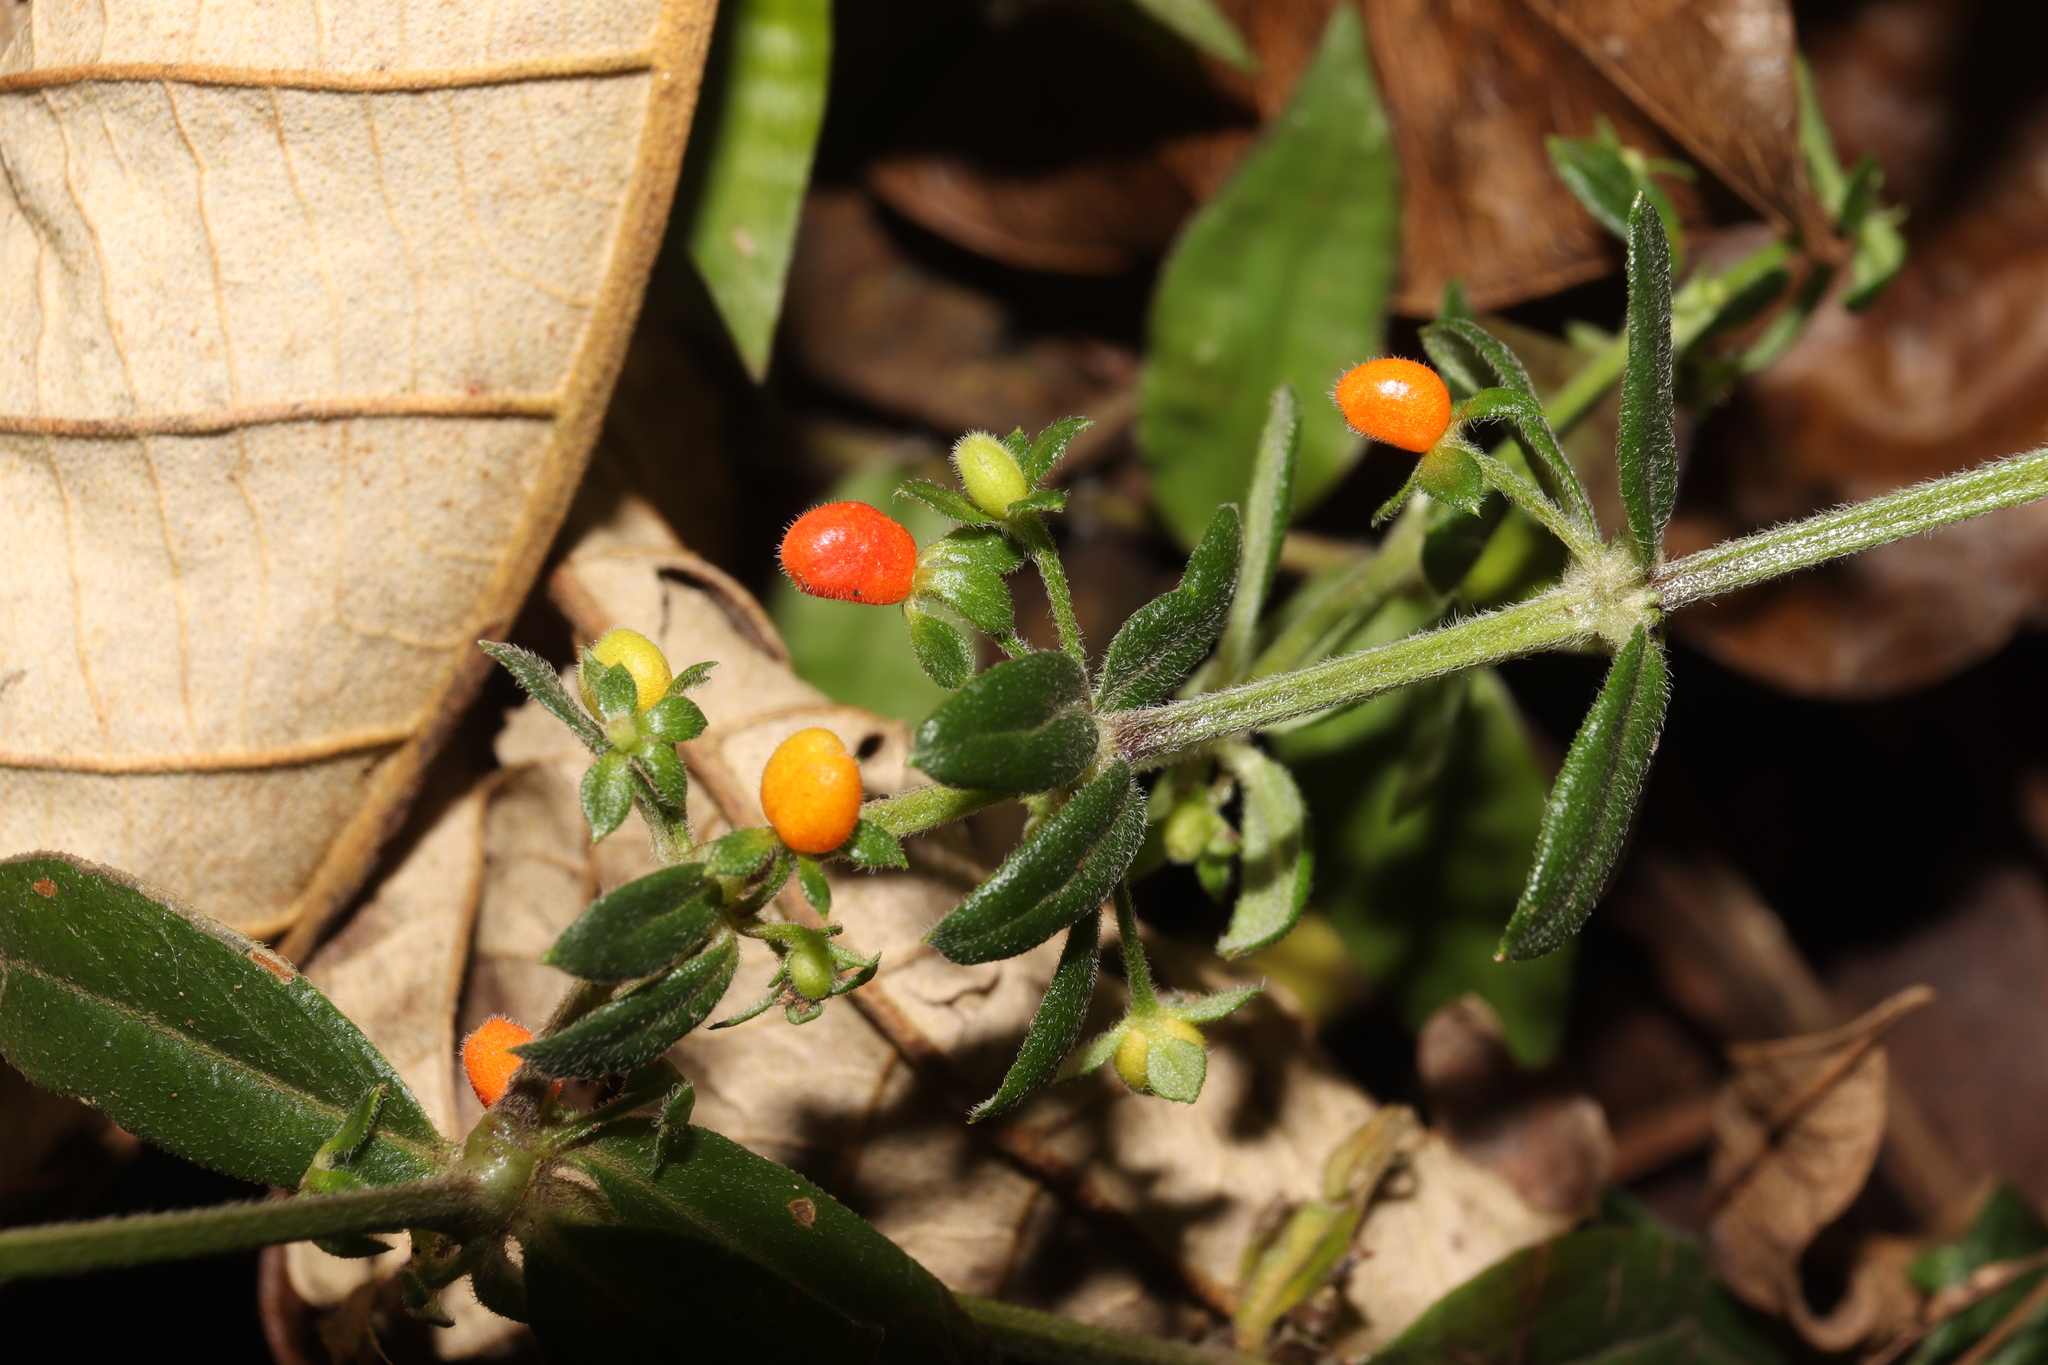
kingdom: Plantae
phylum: Tracheophyta
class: Magnoliopsida
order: Gentianales
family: Rubiaceae
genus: Galium
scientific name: Galium hypocarpium
